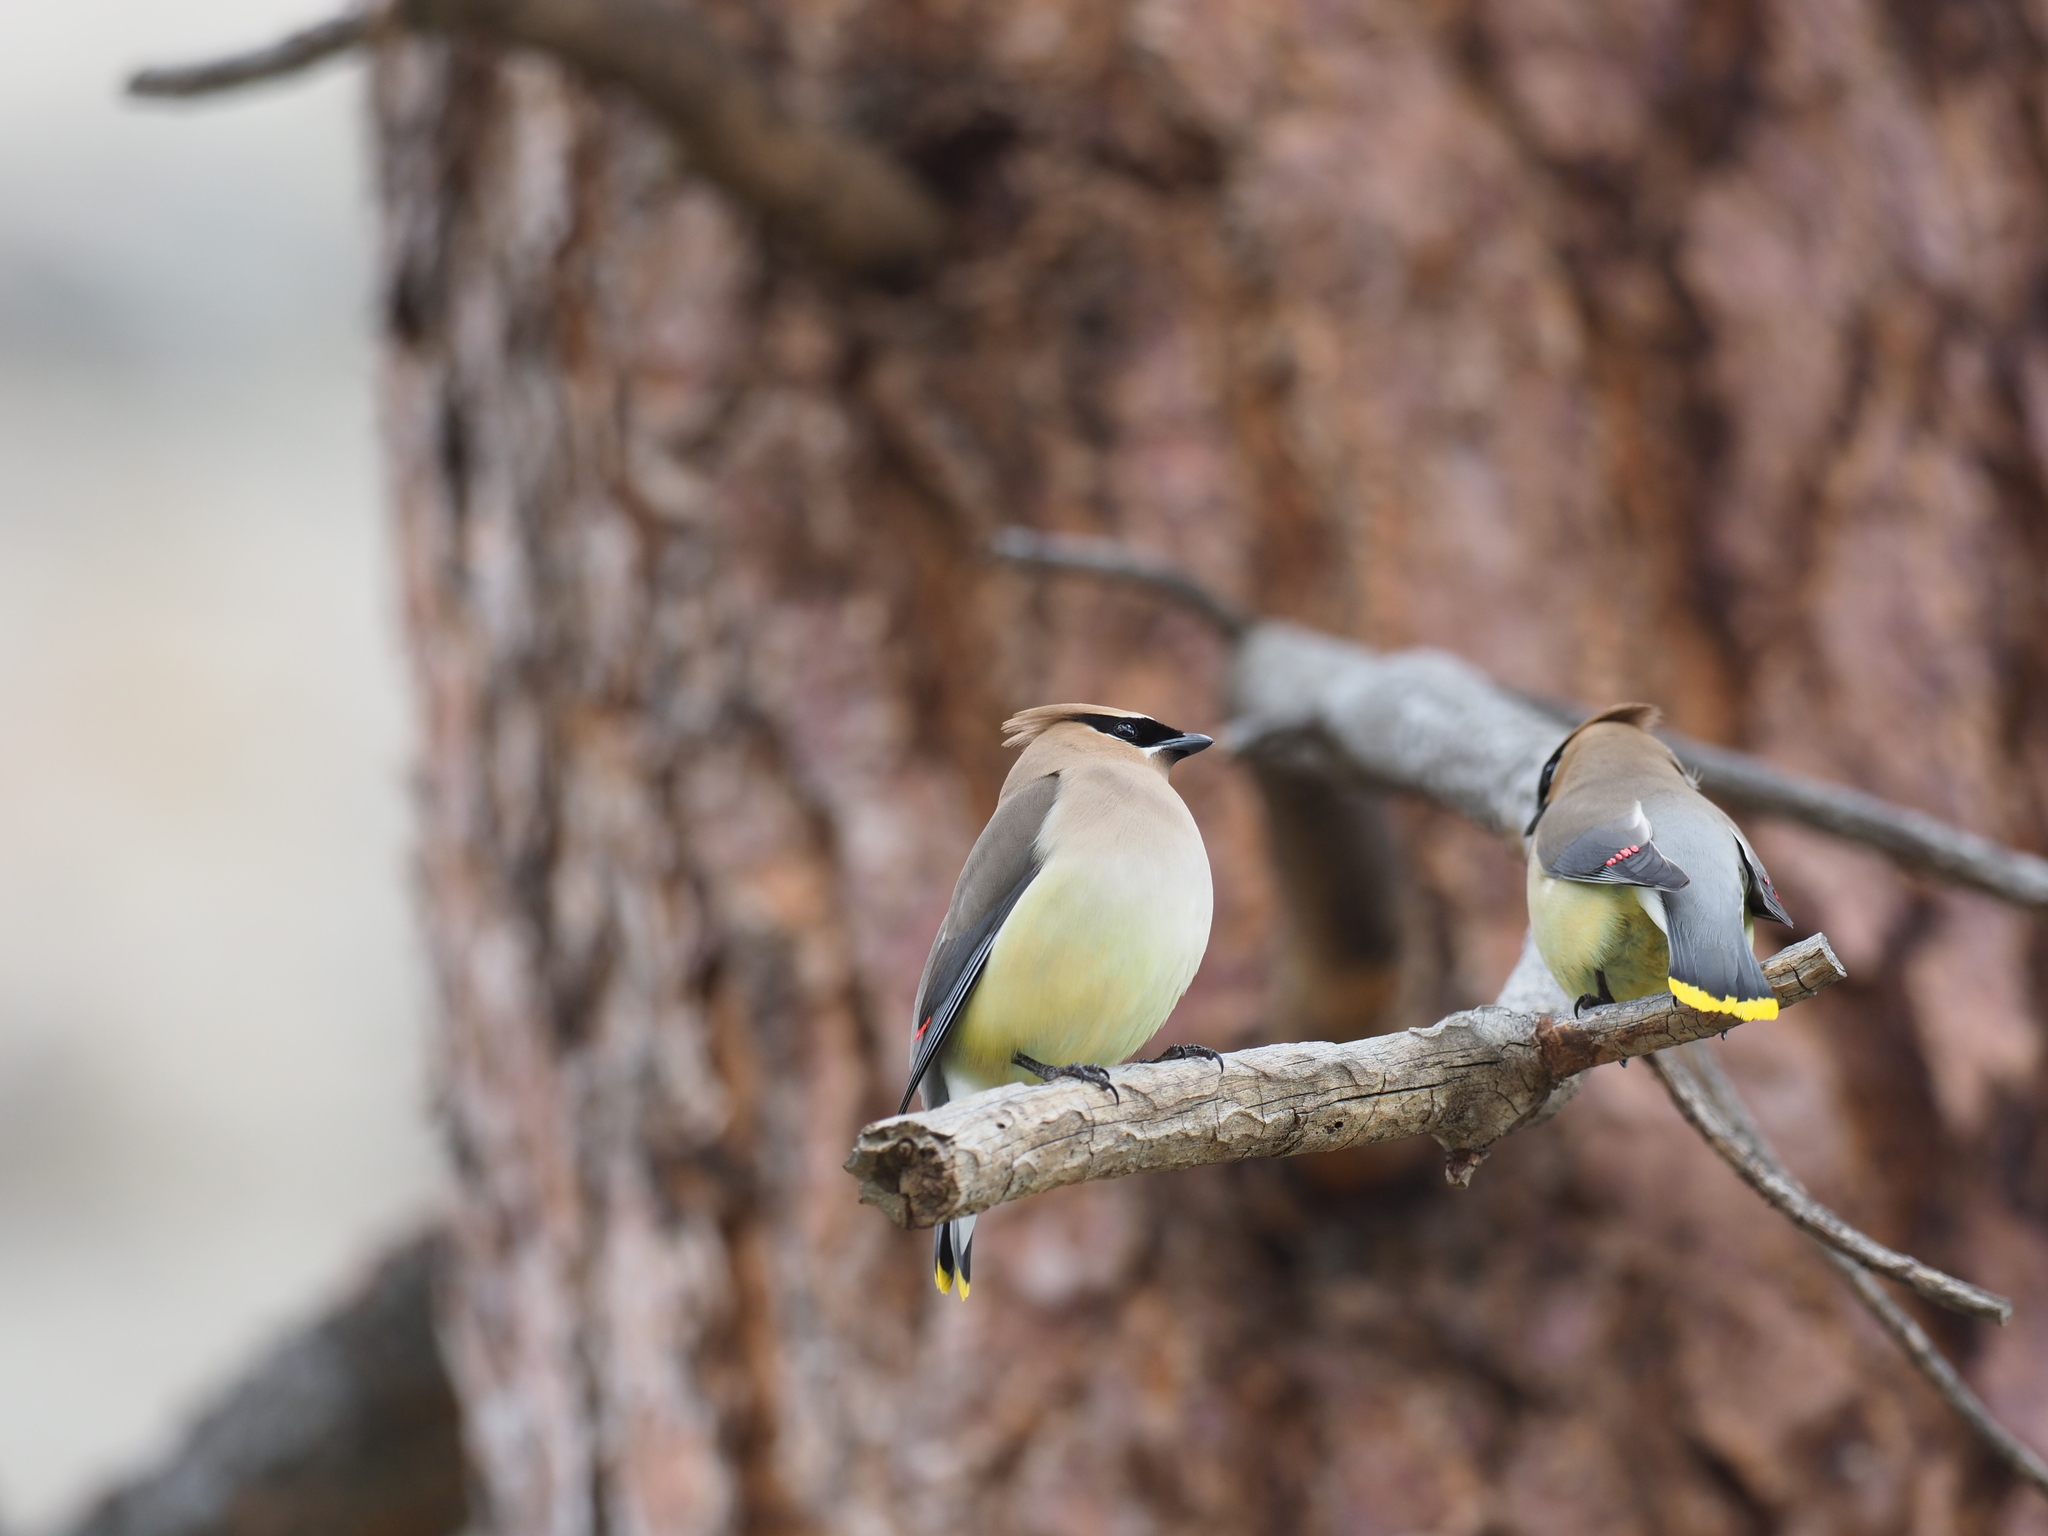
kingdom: Animalia
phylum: Chordata
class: Aves
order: Passeriformes
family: Bombycillidae
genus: Bombycilla
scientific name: Bombycilla cedrorum
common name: Cedar waxwing
